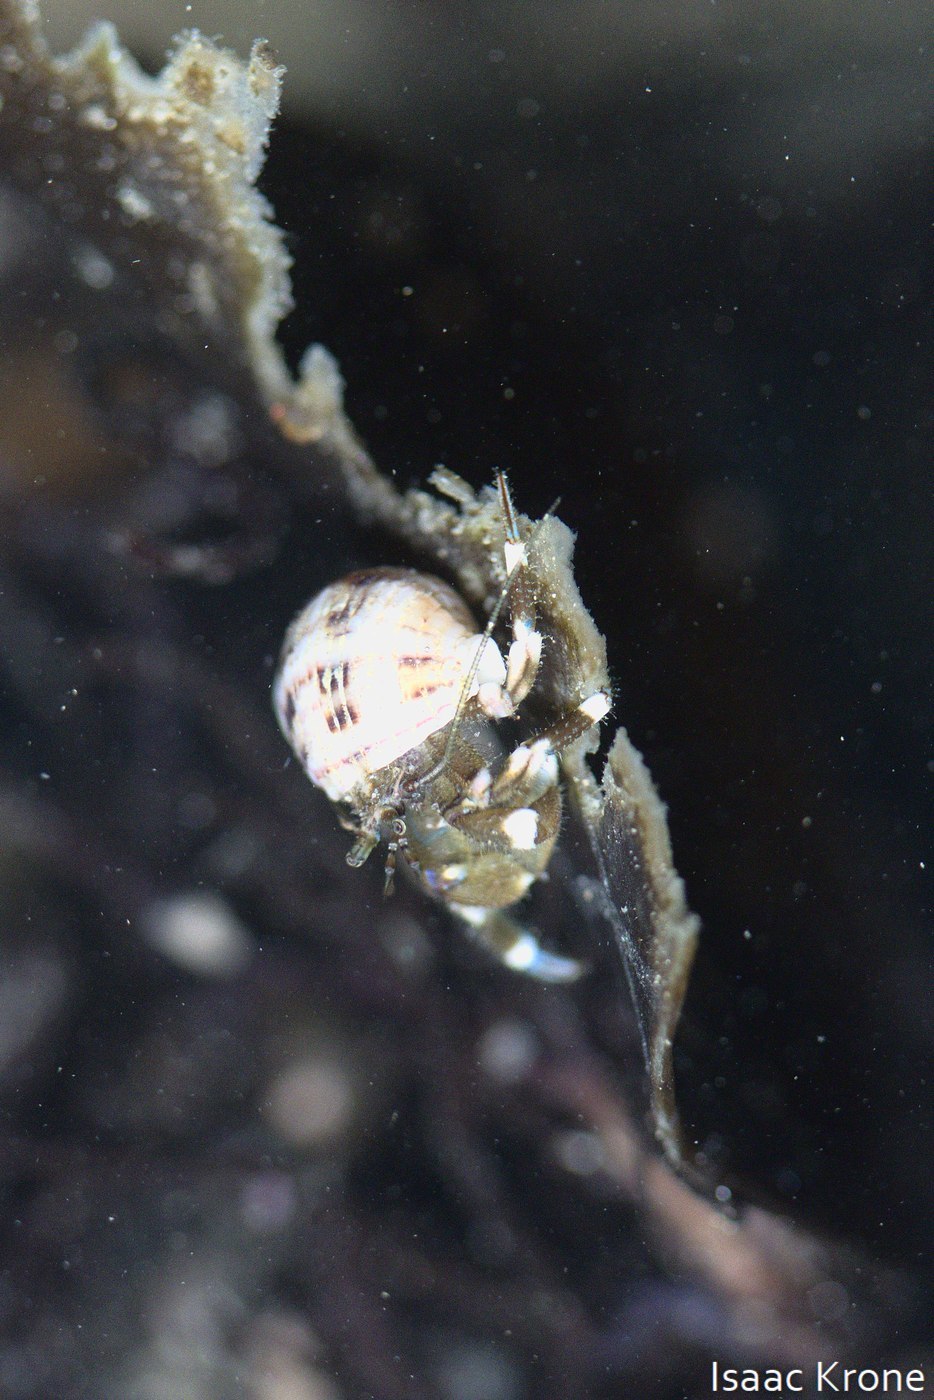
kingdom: Animalia
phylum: Arthropoda
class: Malacostraca
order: Decapoda
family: Paguridae
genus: Pagurus
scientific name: Pagurus hirsutiusculus
